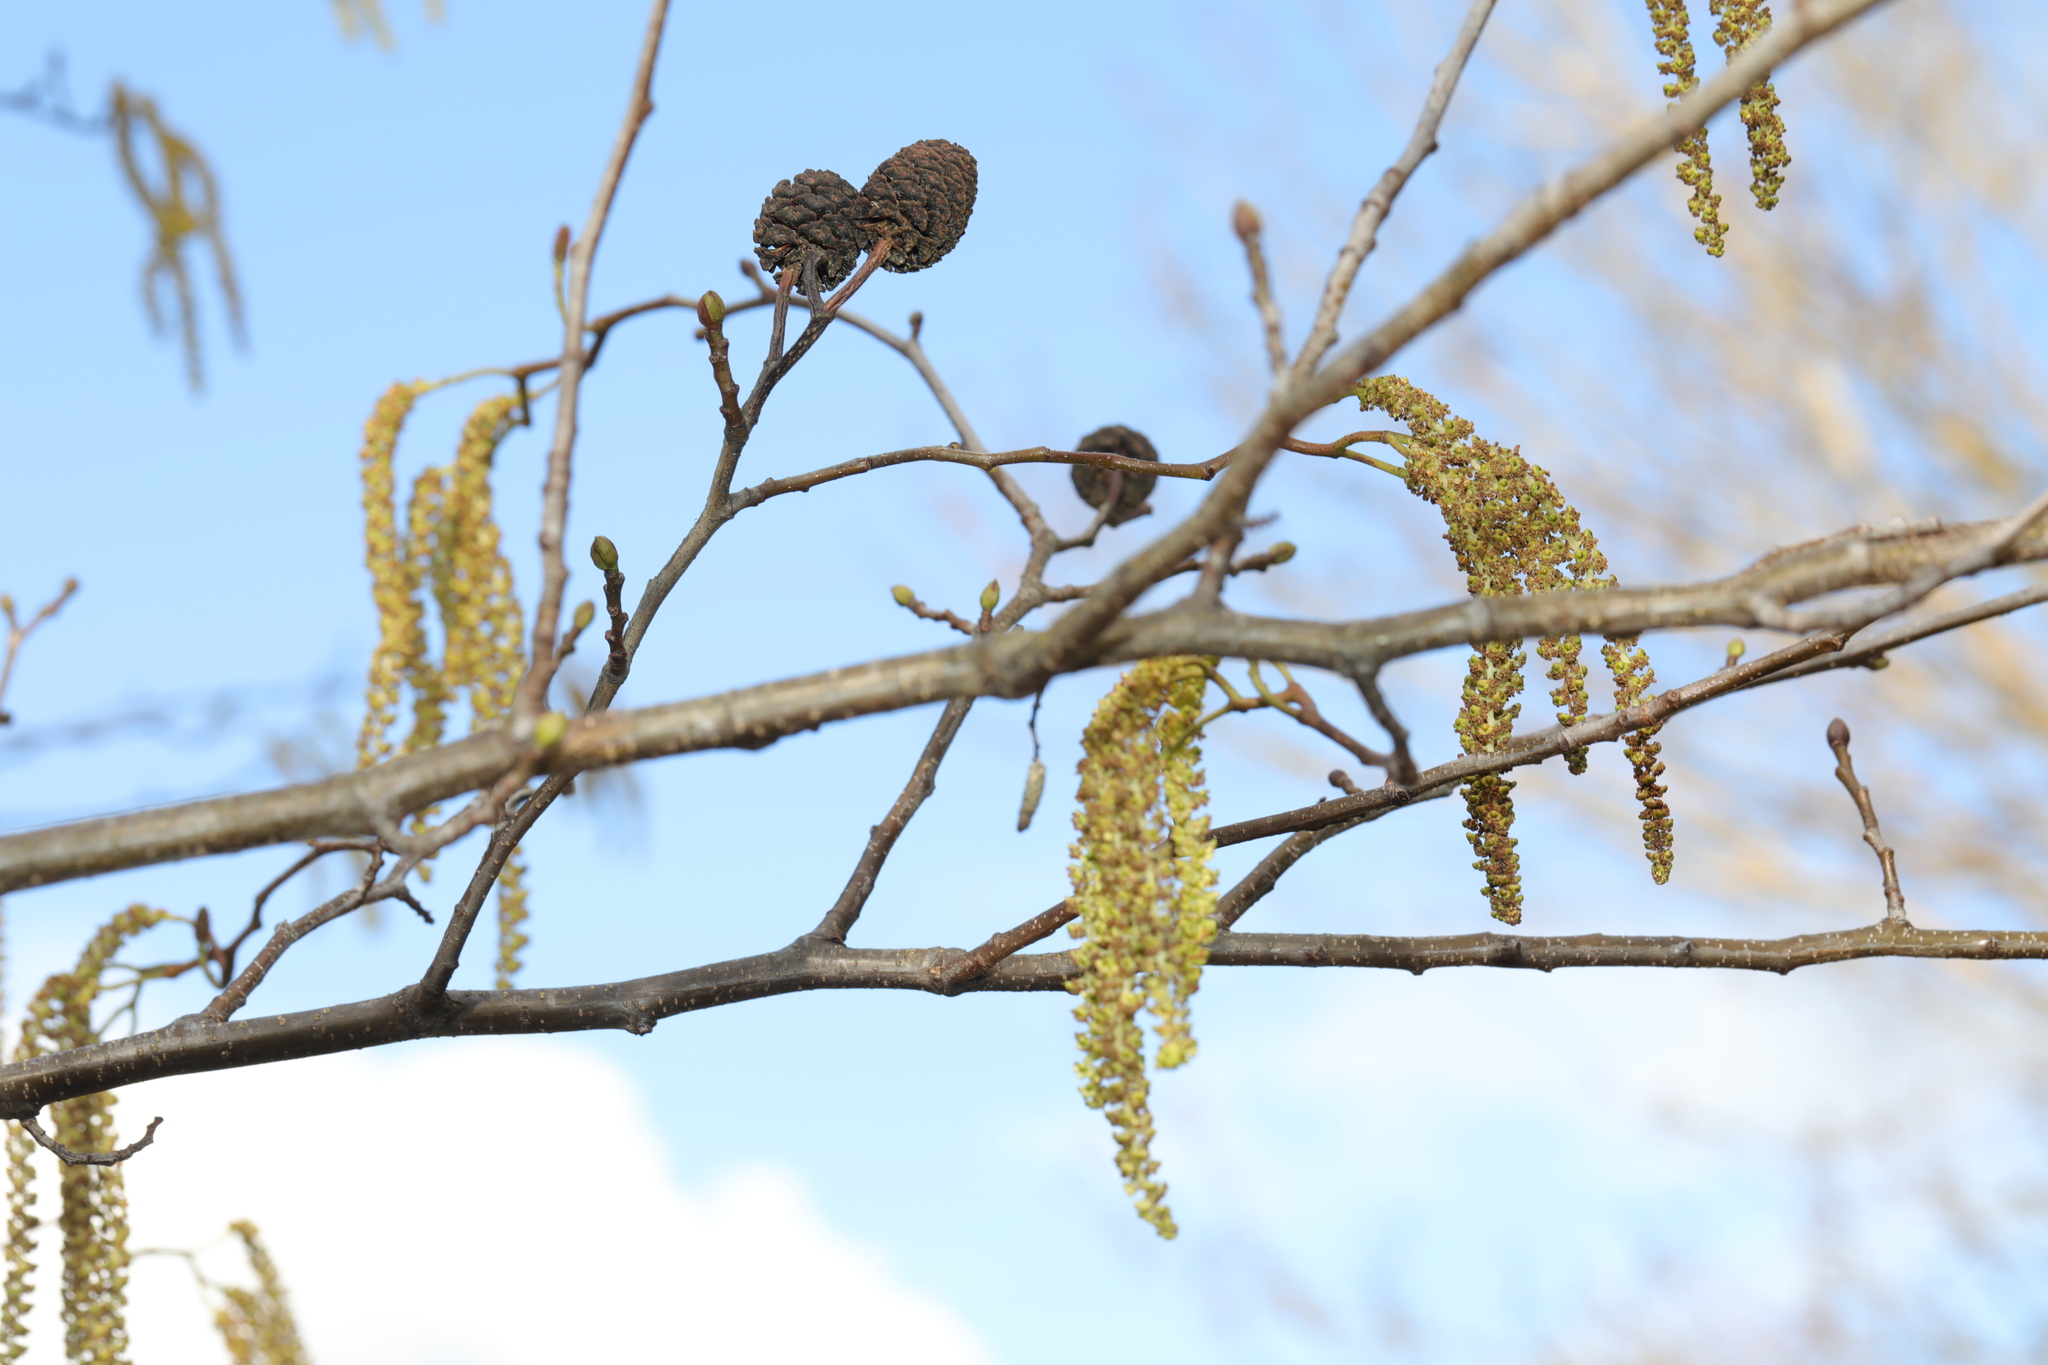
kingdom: Plantae
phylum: Tracheophyta
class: Magnoliopsida
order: Fagales
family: Betulaceae
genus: Alnus
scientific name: Alnus glutinosa
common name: Black alder
